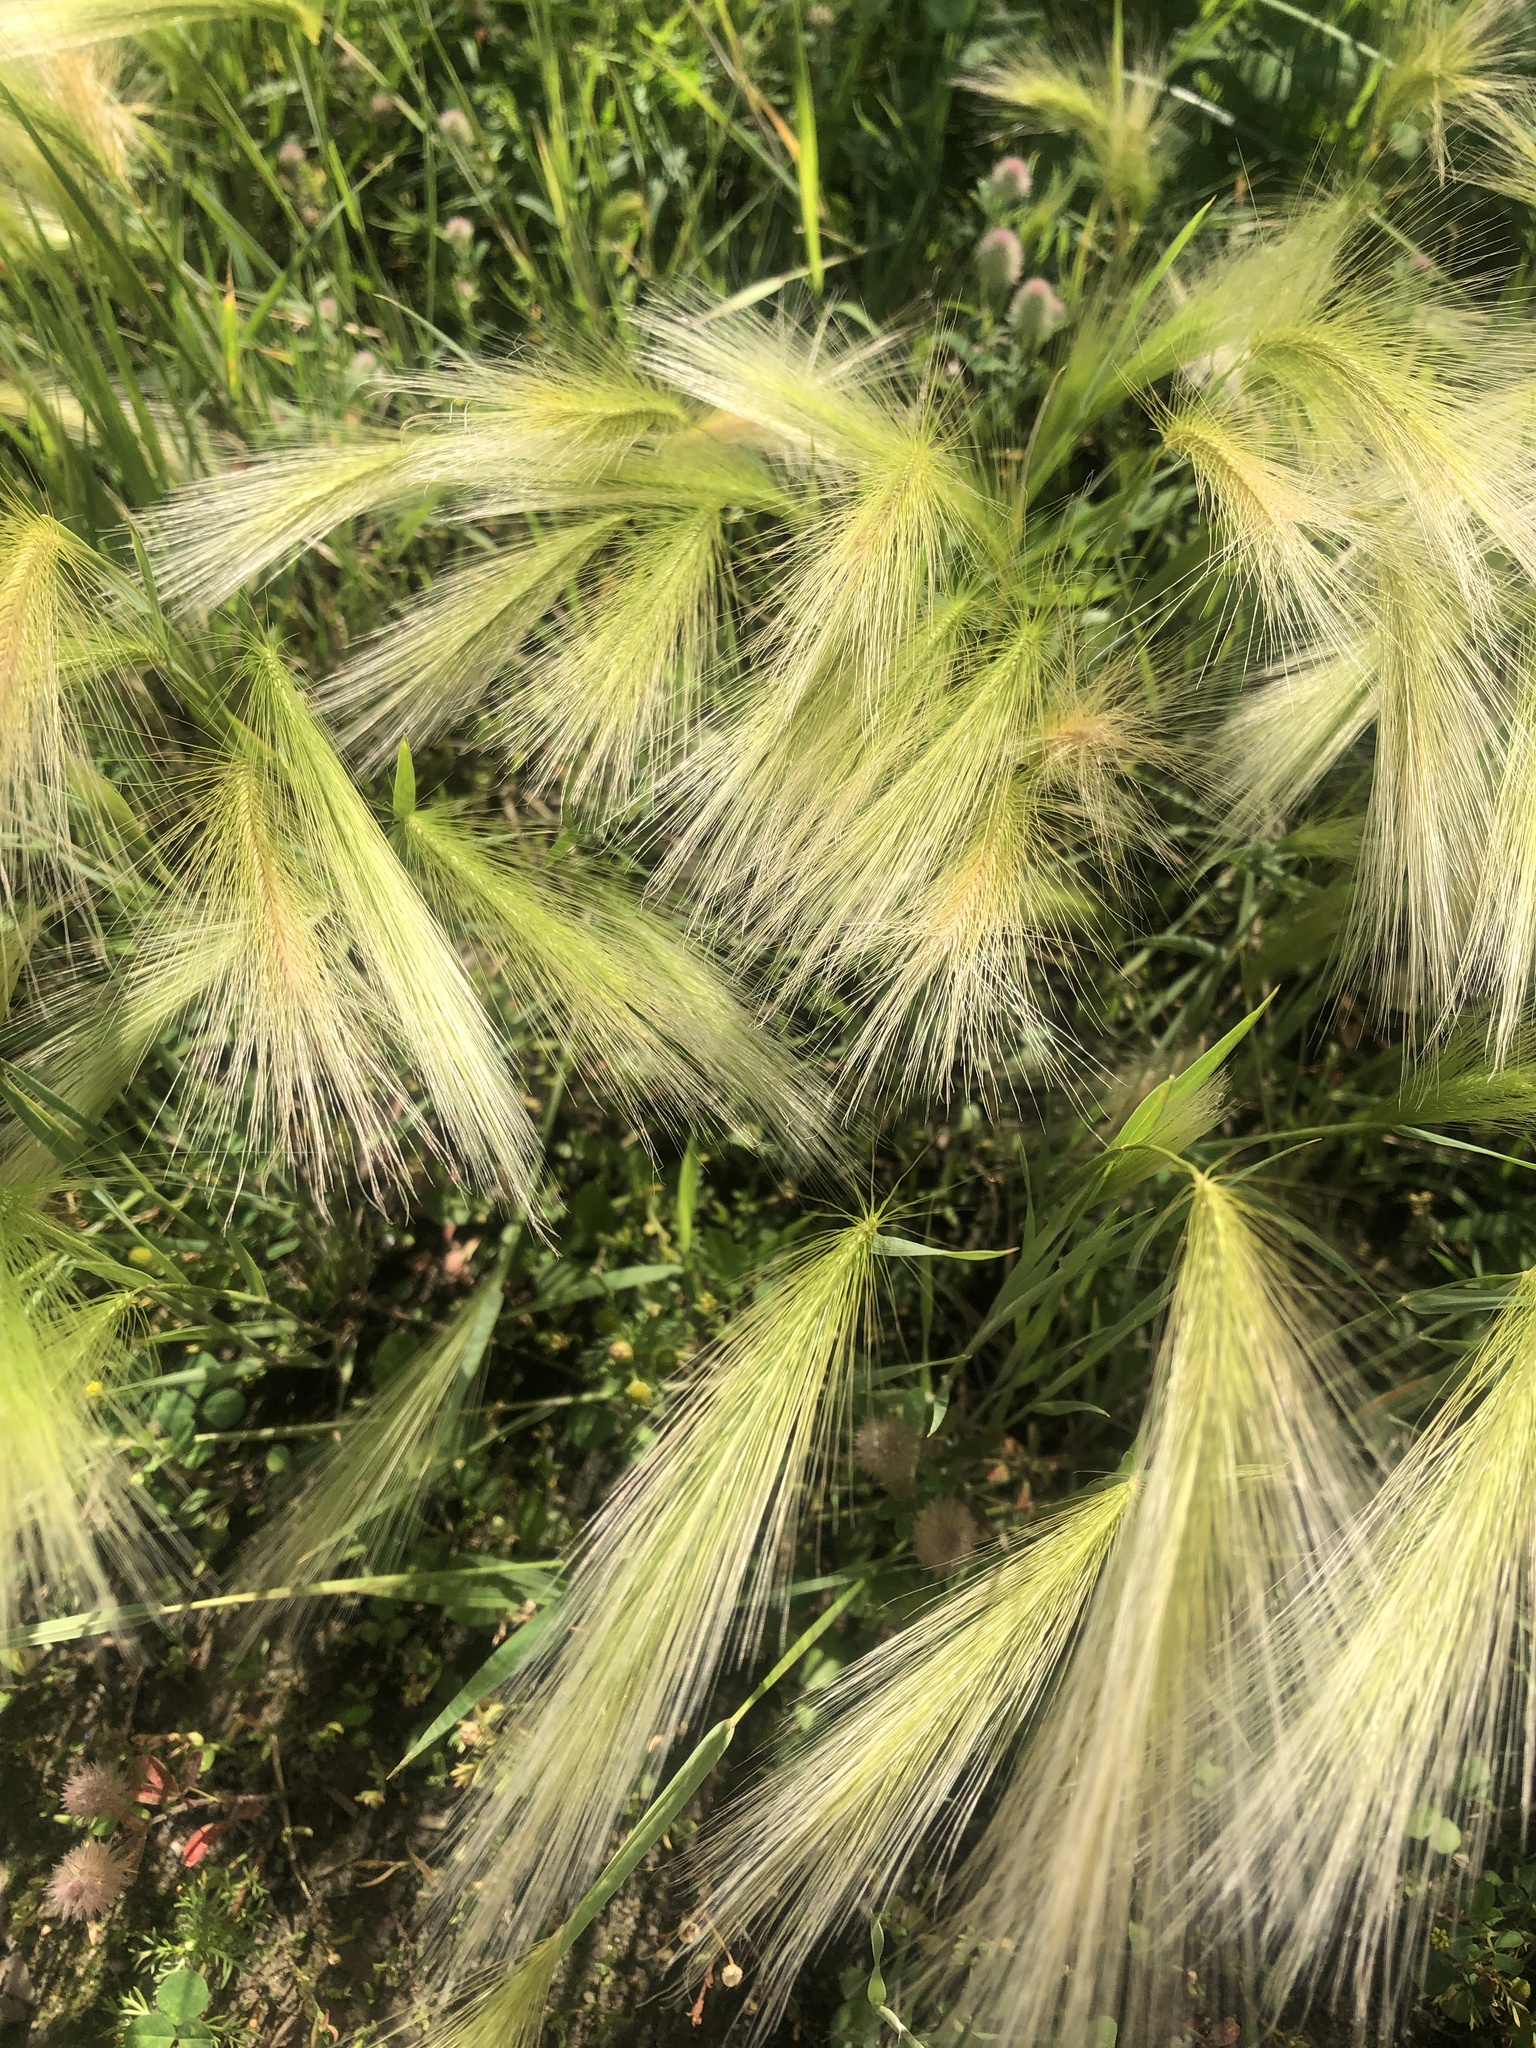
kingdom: Plantae
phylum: Tracheophyta
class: Liliopsida
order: Poales
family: Poaceae
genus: Hordeum
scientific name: Hordeum jubatum
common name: Foxtail barley
